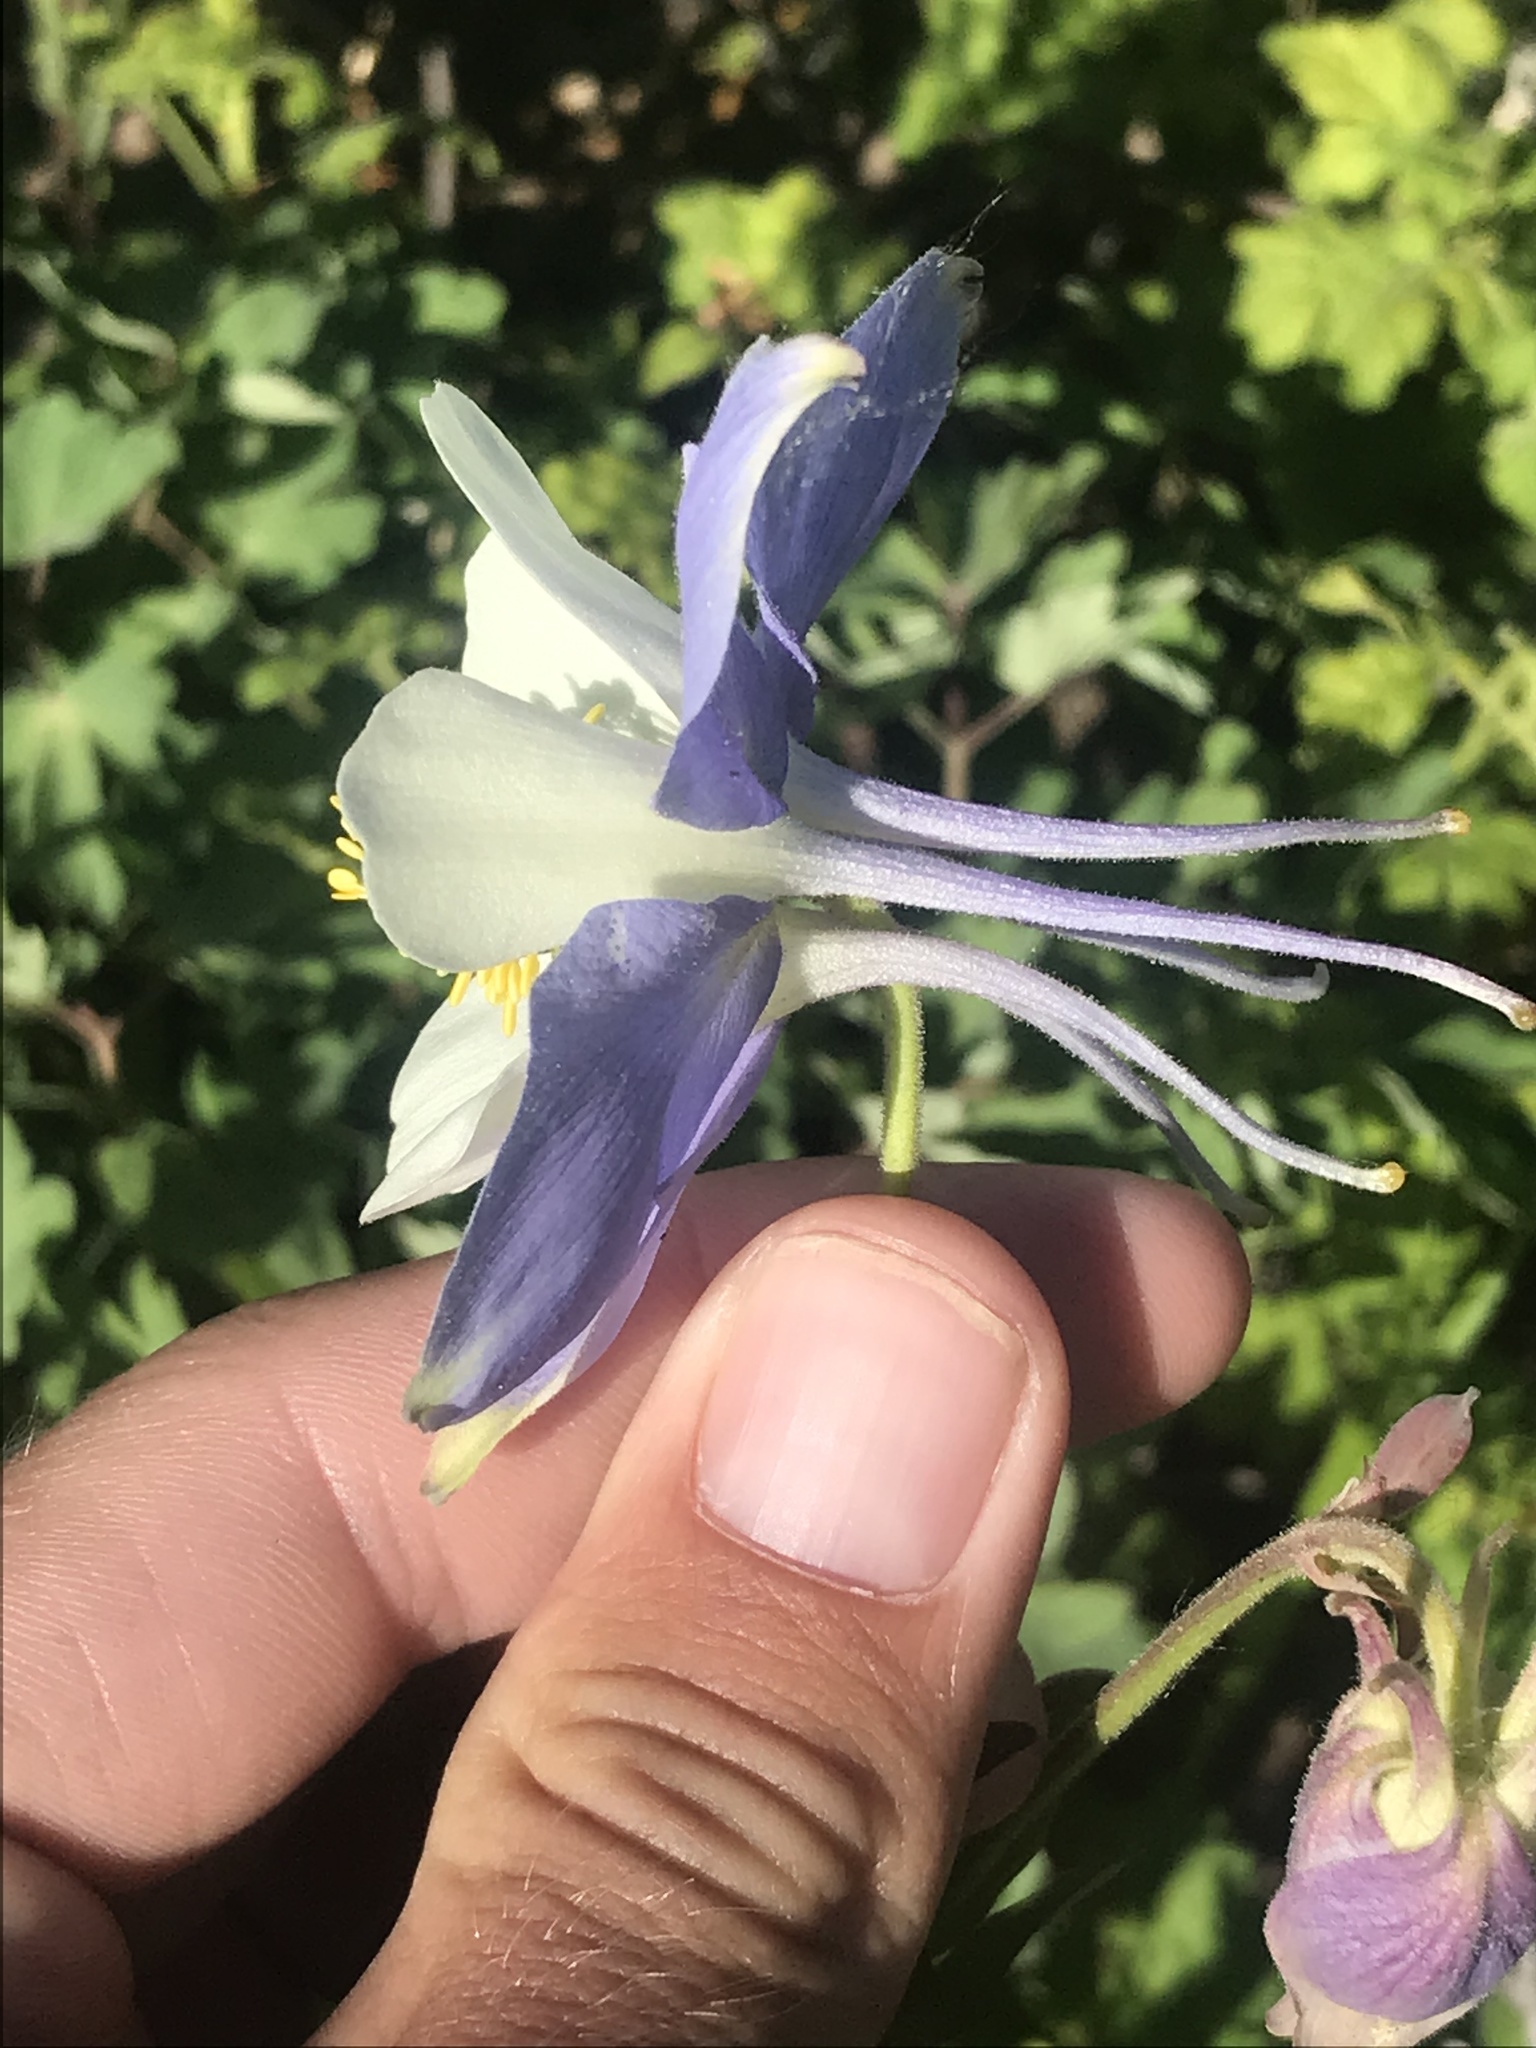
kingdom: Plantae
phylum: Tracheophyta
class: Magnoliopsida
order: Ranunculales
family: Ranunculaceae
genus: Aquilegia
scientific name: Aquilegia coerulea
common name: Rocky mountain columbine
